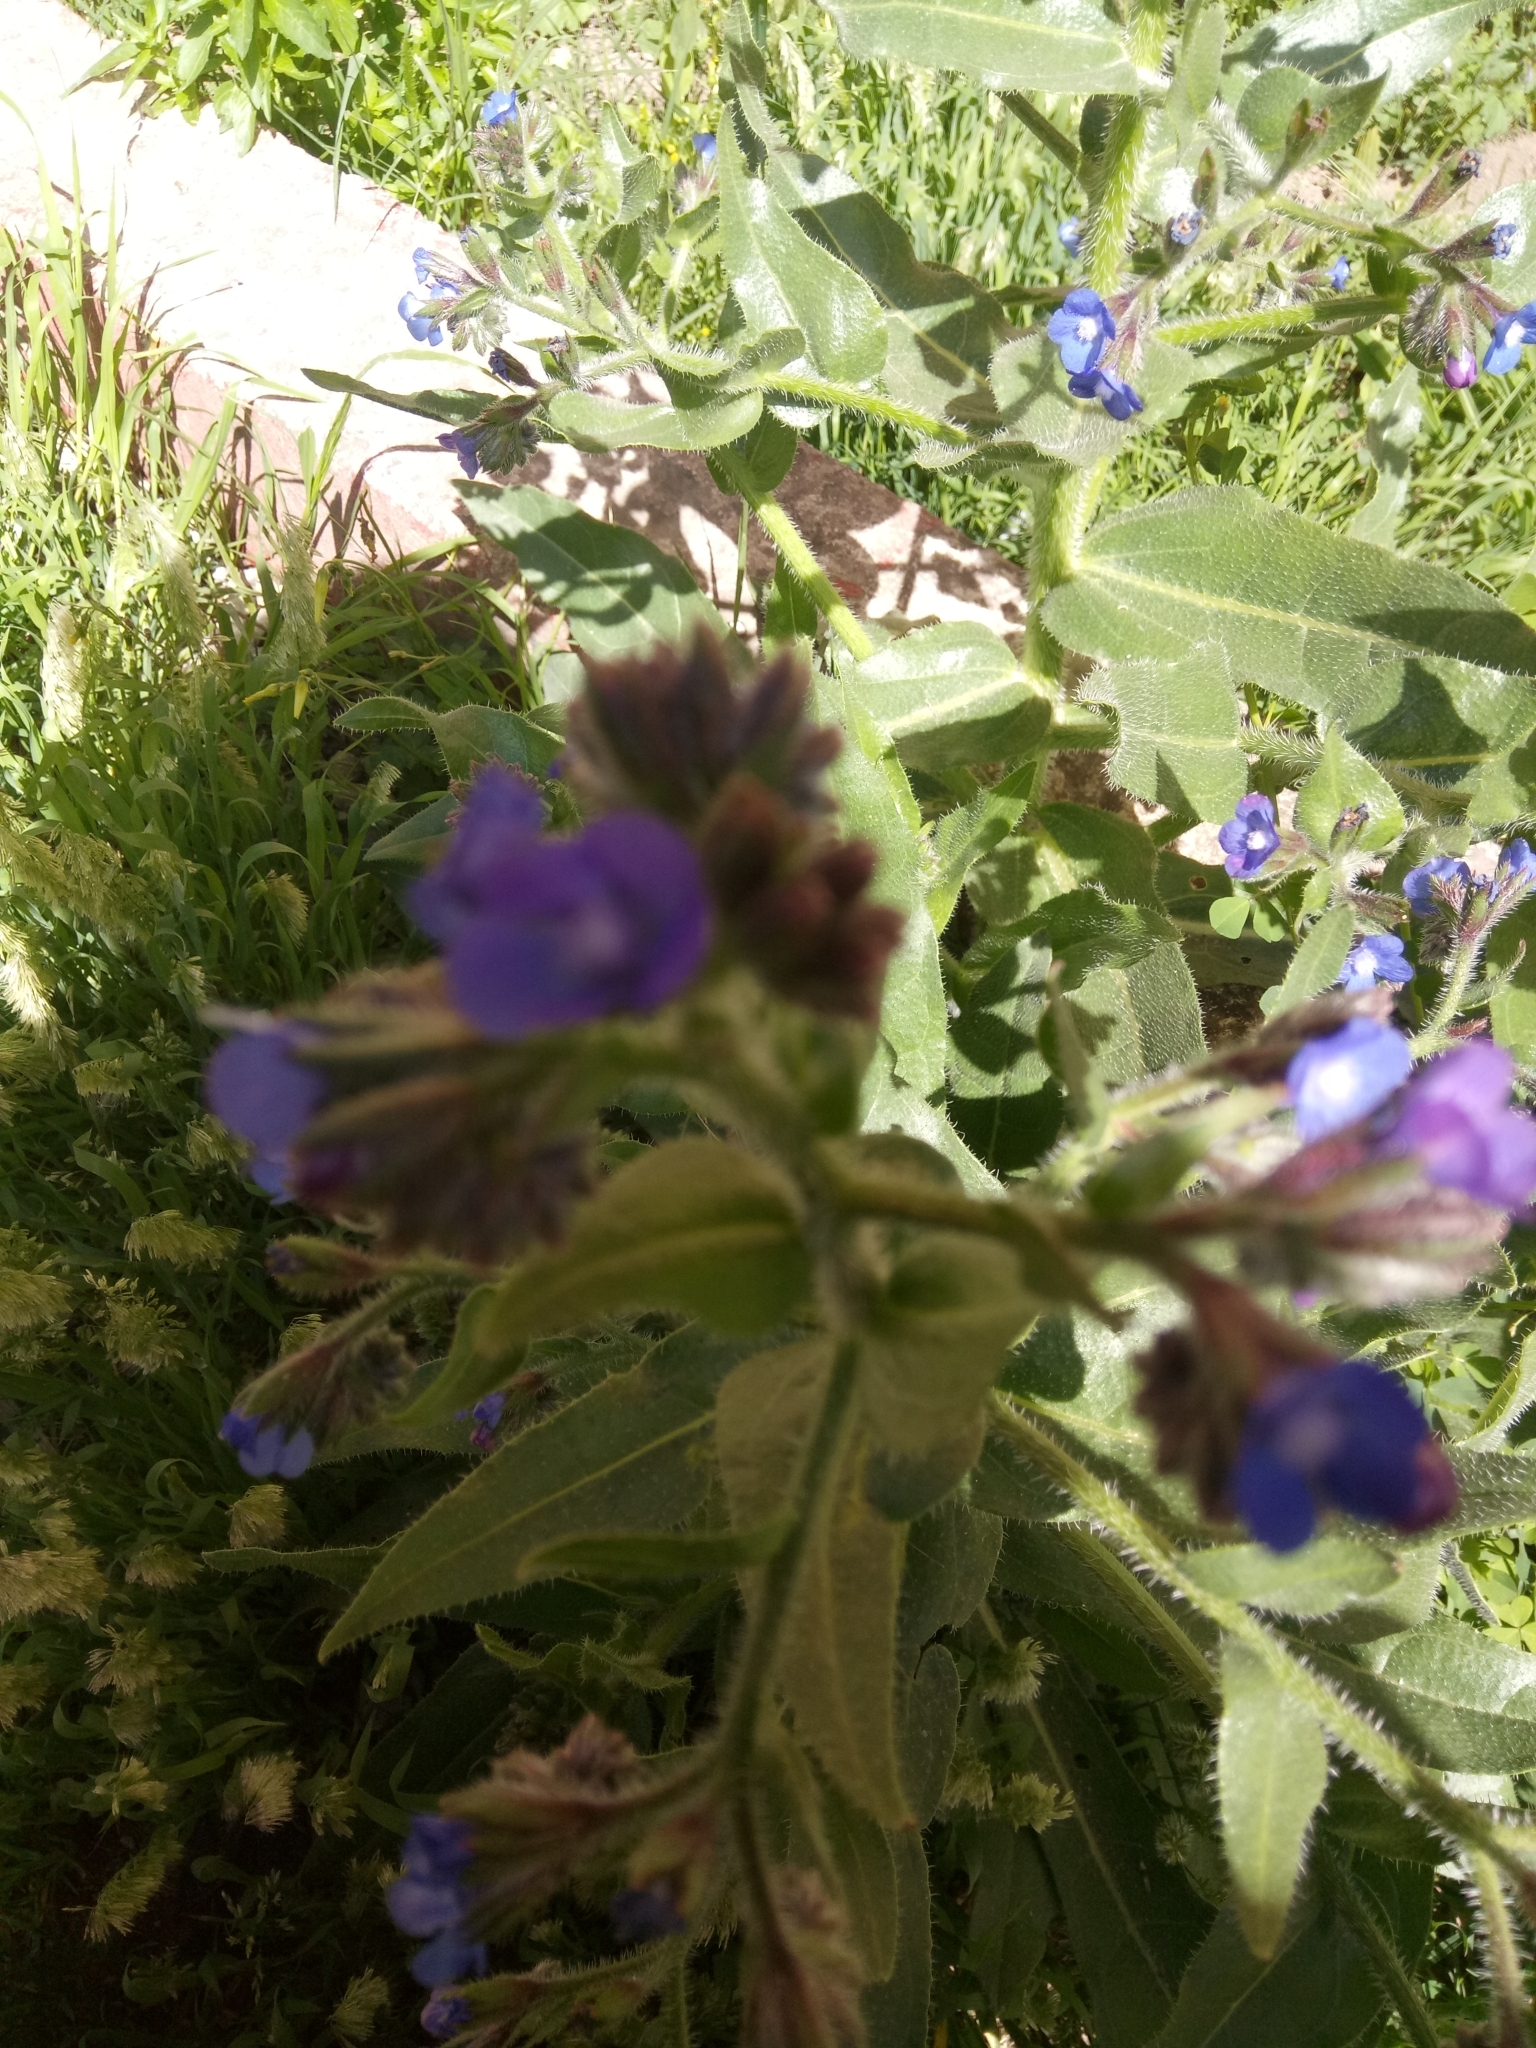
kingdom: Plantae
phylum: Tracheophyta
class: Magnoliopsida
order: Boraginales
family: Boraginaceae
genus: Anchusa
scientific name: Anchusa azurea
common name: Garden anchusa
